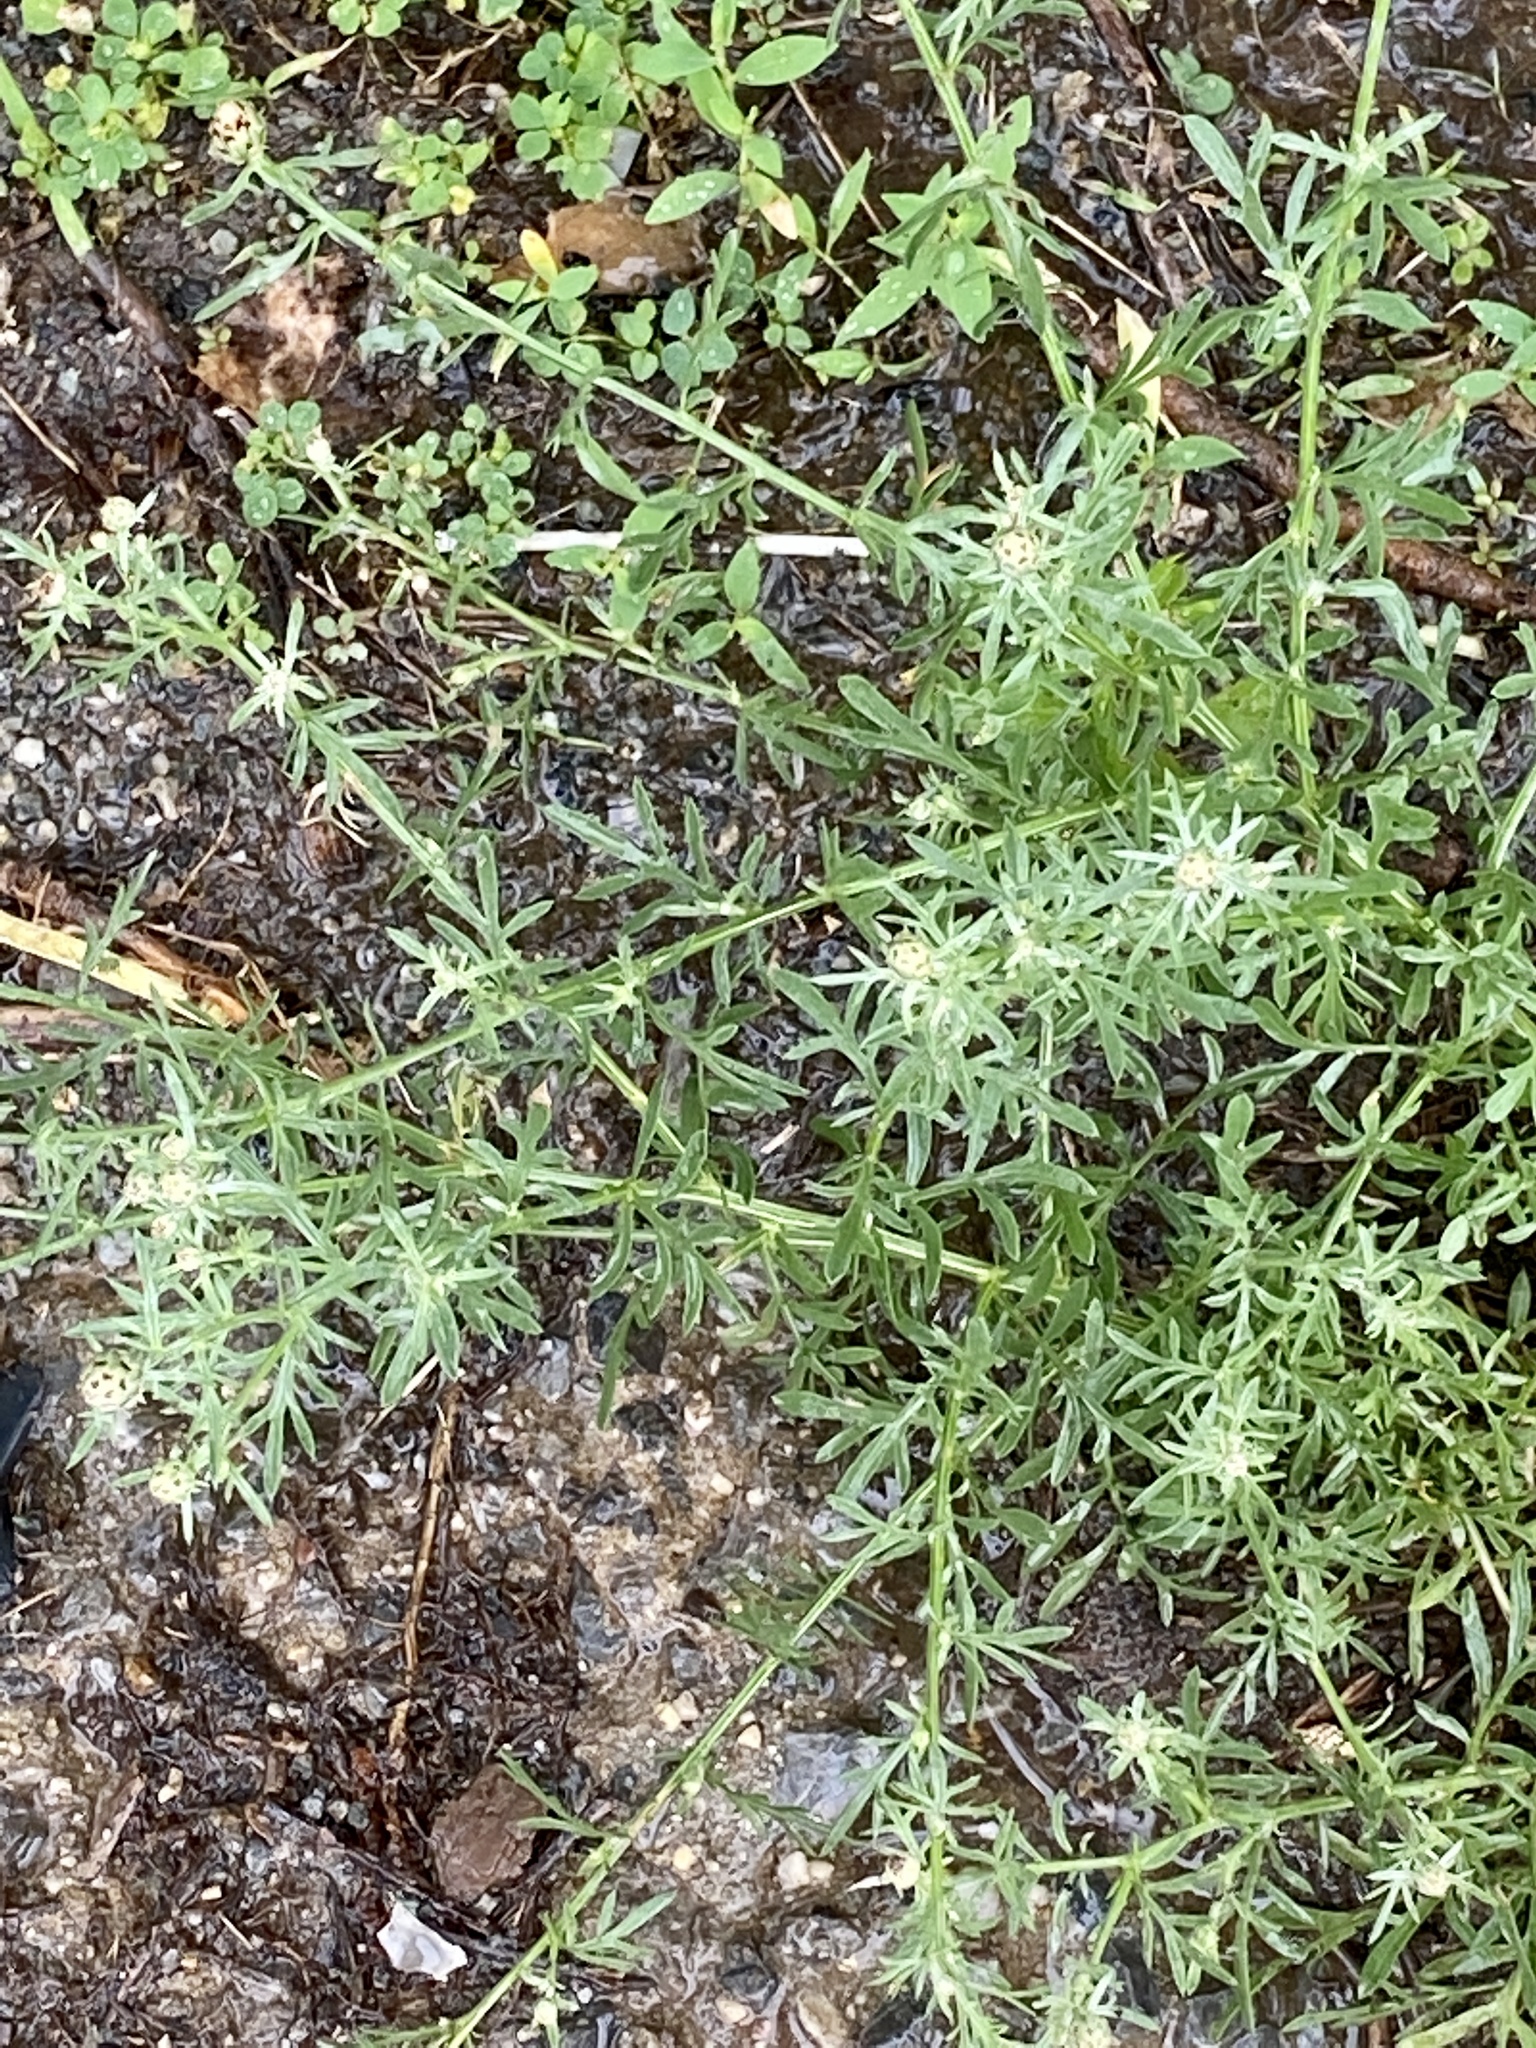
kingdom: Plantae
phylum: Tracheophyta
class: Magnoliopsida
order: Asterales
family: Asteraceae
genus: Centaurea
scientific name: Centaurea stoebe
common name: Spotted knapweed
